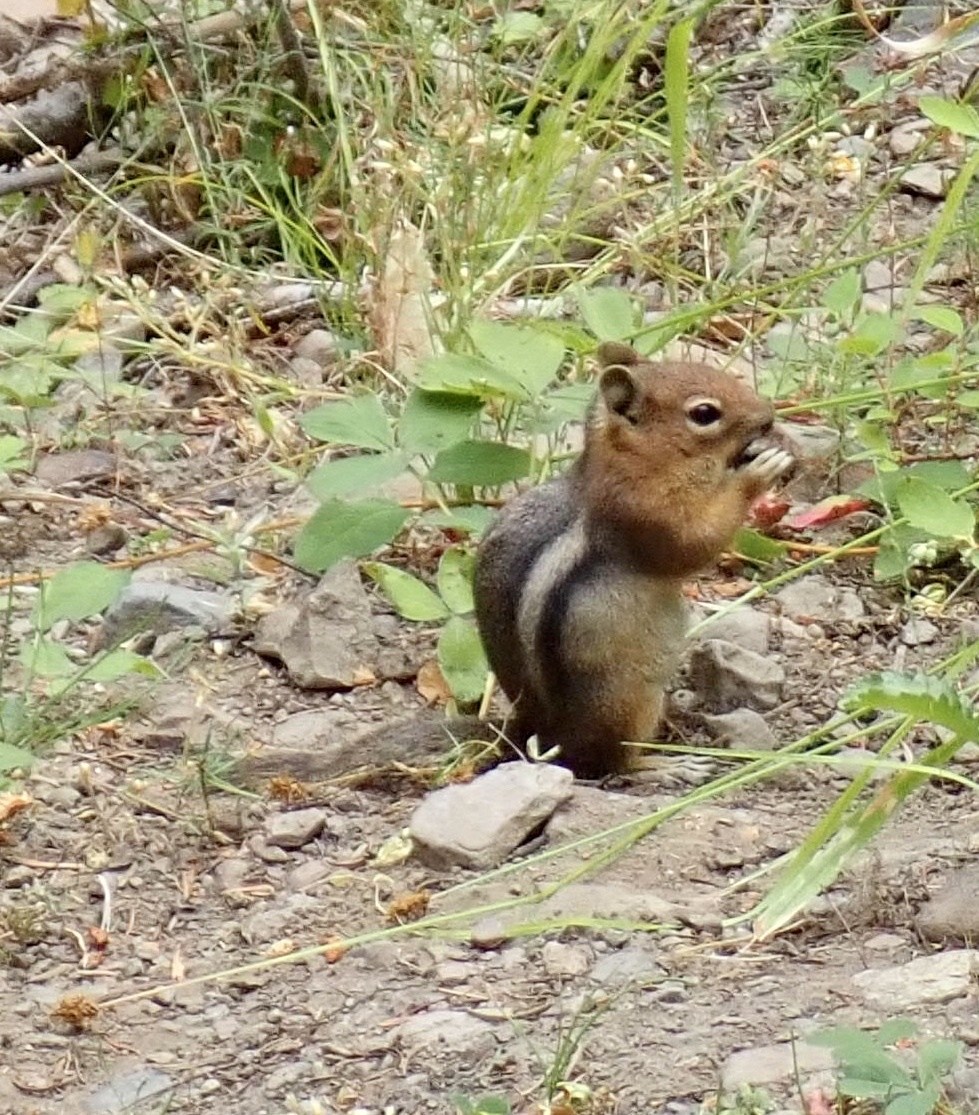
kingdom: Animalia
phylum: Chordata
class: Mammalia
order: Rodentia
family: Sciuridae
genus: Callospermophilus
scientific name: Callospermophilus saturatus
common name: Cascade golden-mantled ground squirrel
